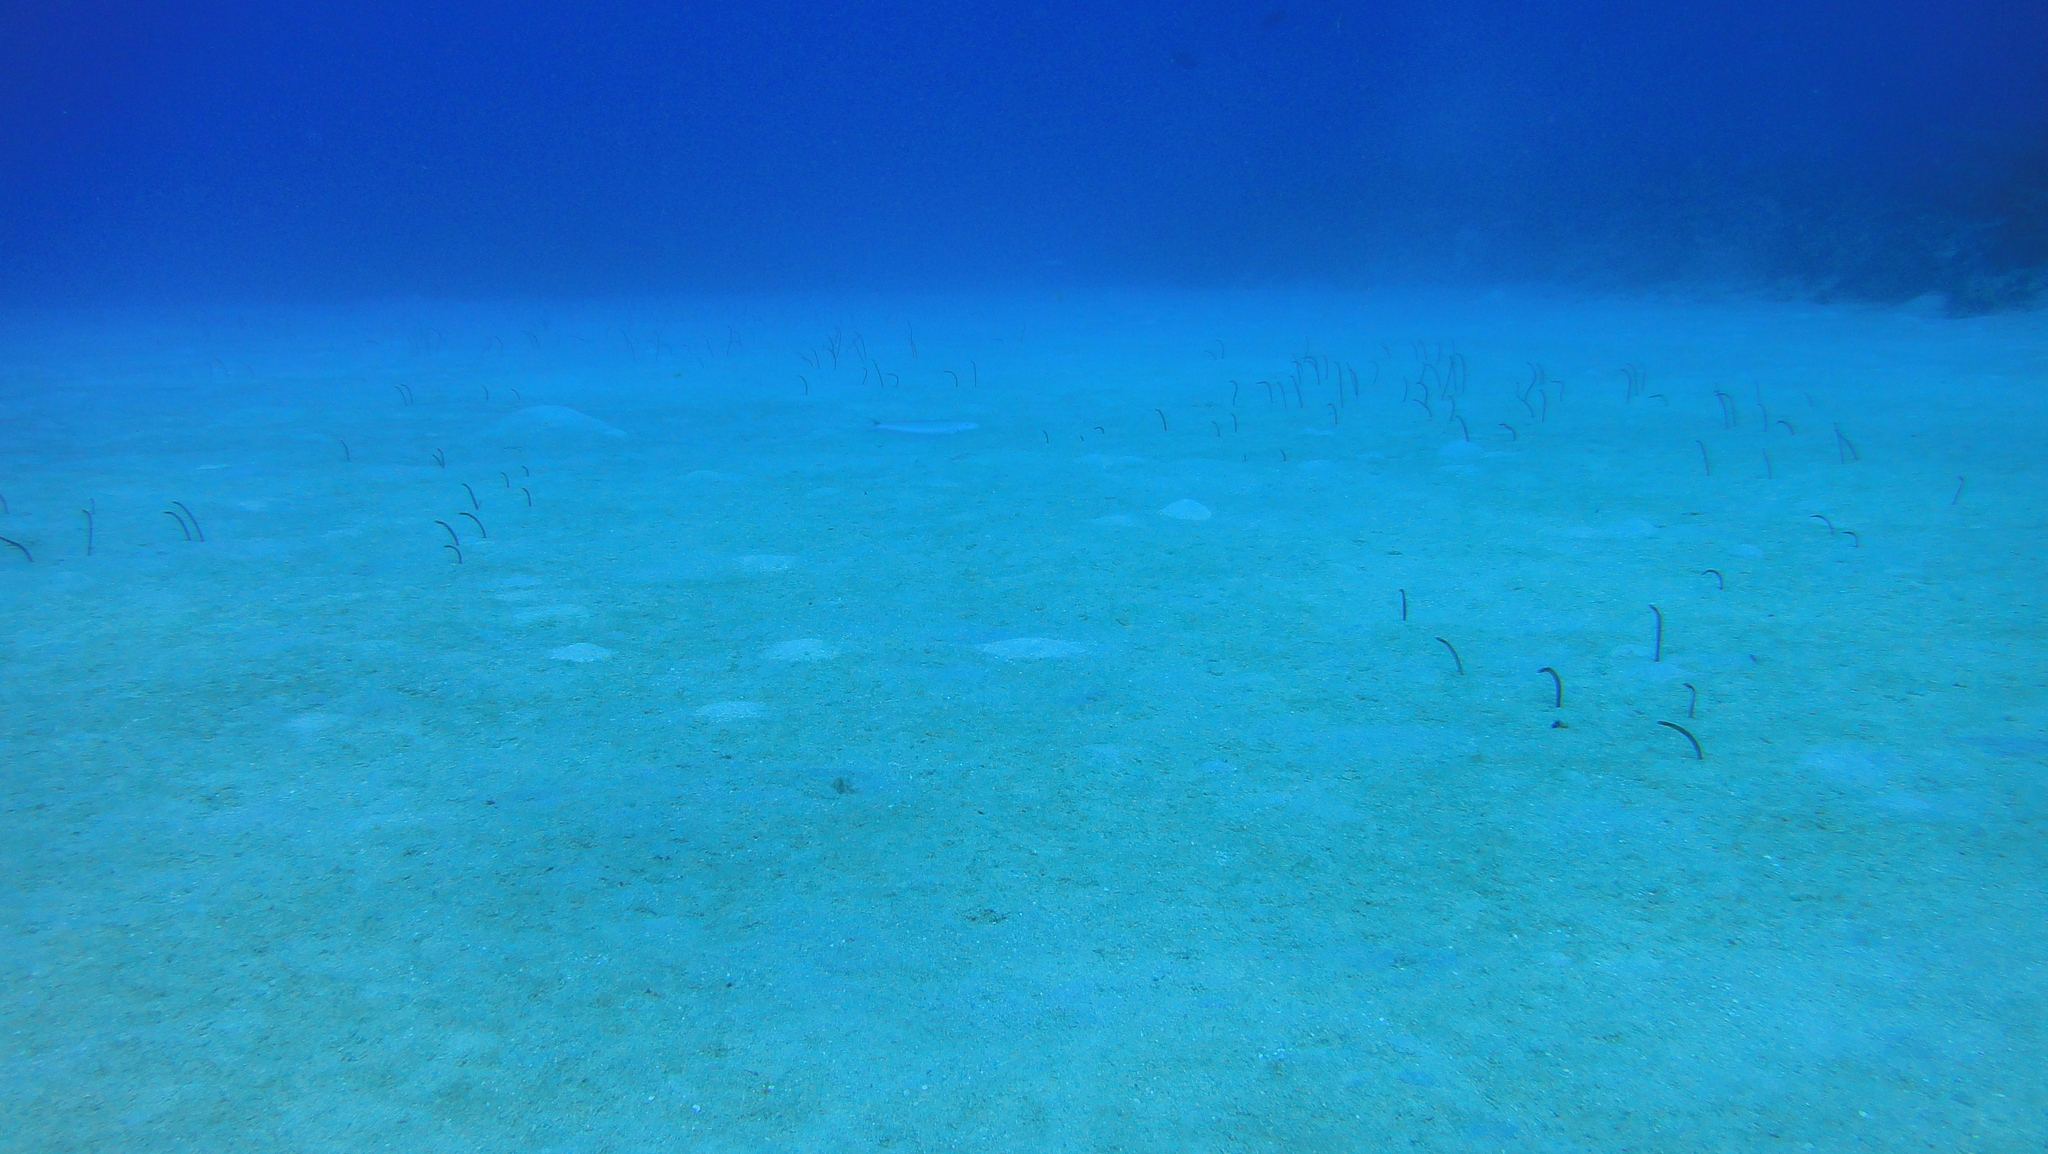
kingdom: Animalia
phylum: Chordata
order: Anguilliformes
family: Congridae
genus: Heteroconger
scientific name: Heteroconger longissimus
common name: Garden eel
